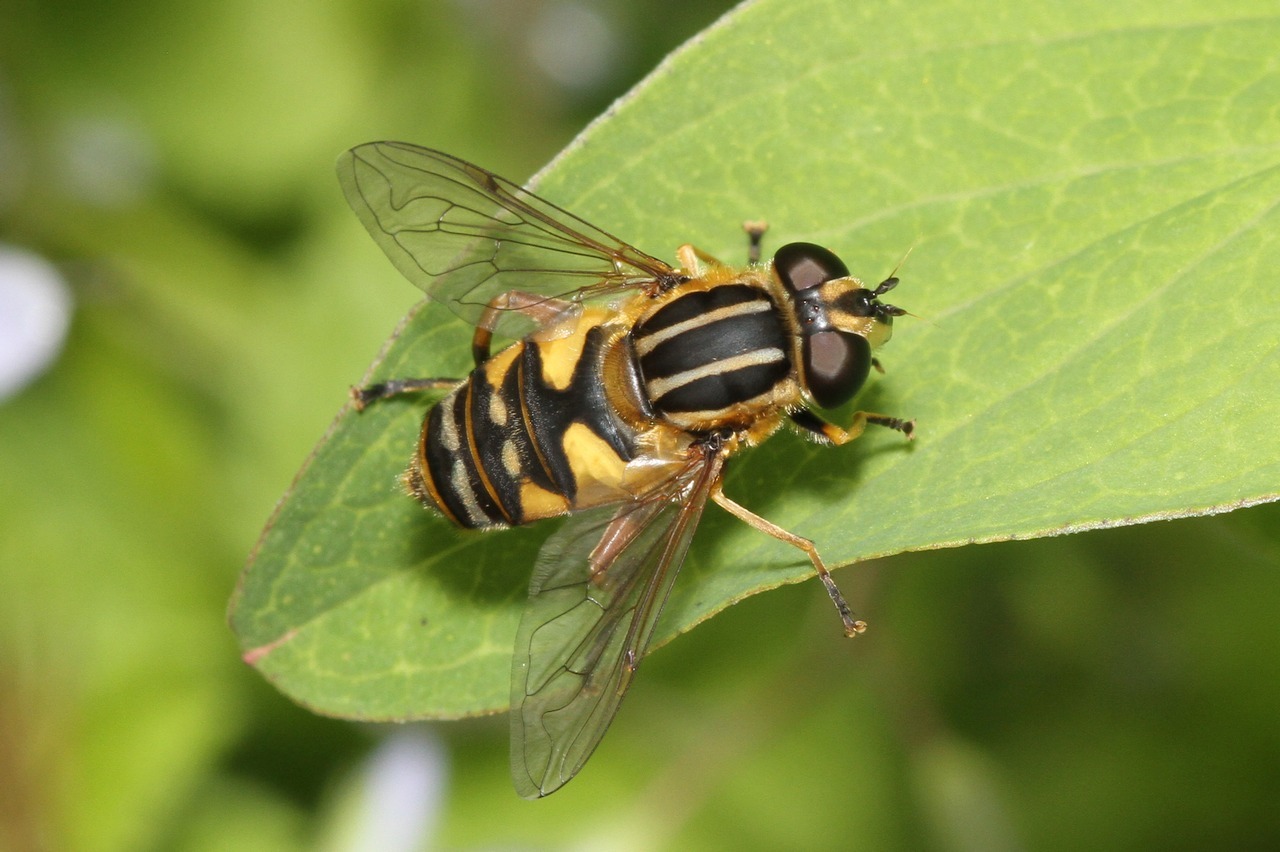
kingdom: Animalia
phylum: Arthropoda
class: Insecta
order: Diptera
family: Syrphidae
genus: Helophilus
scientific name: Helophilus pendulus
